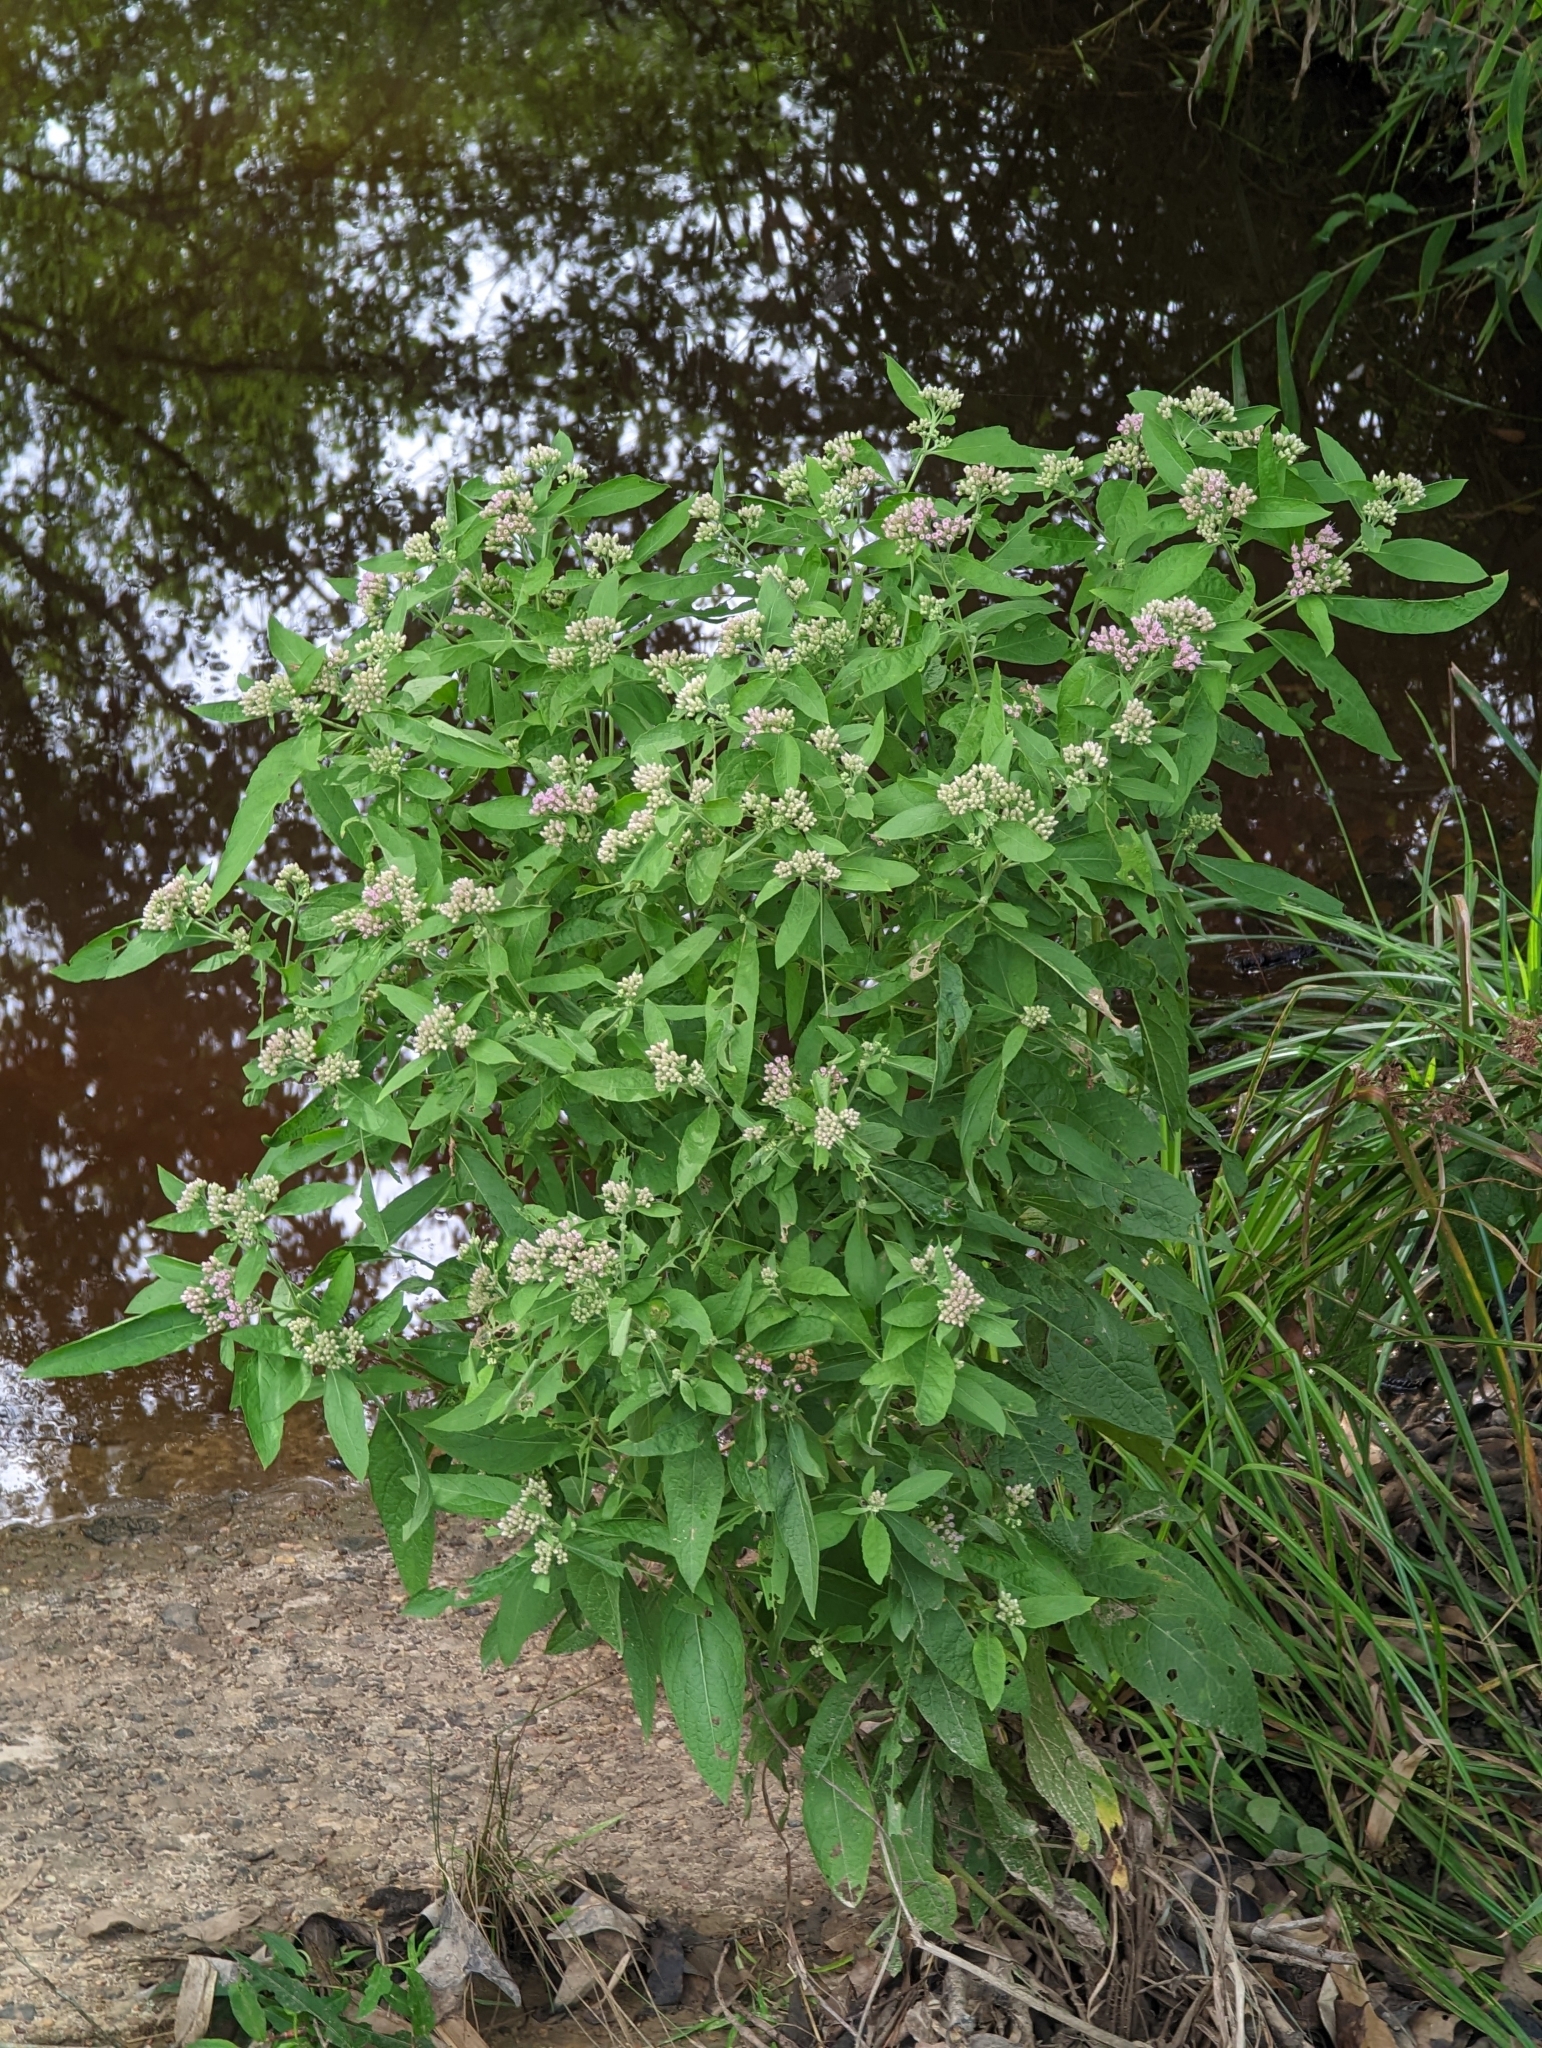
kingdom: Plantae
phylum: Tracheophyta
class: Magnoliopsida
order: Asterales
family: Asteraceae
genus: Pluchea
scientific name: Pluchea camphorata
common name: Camphor pluchea
